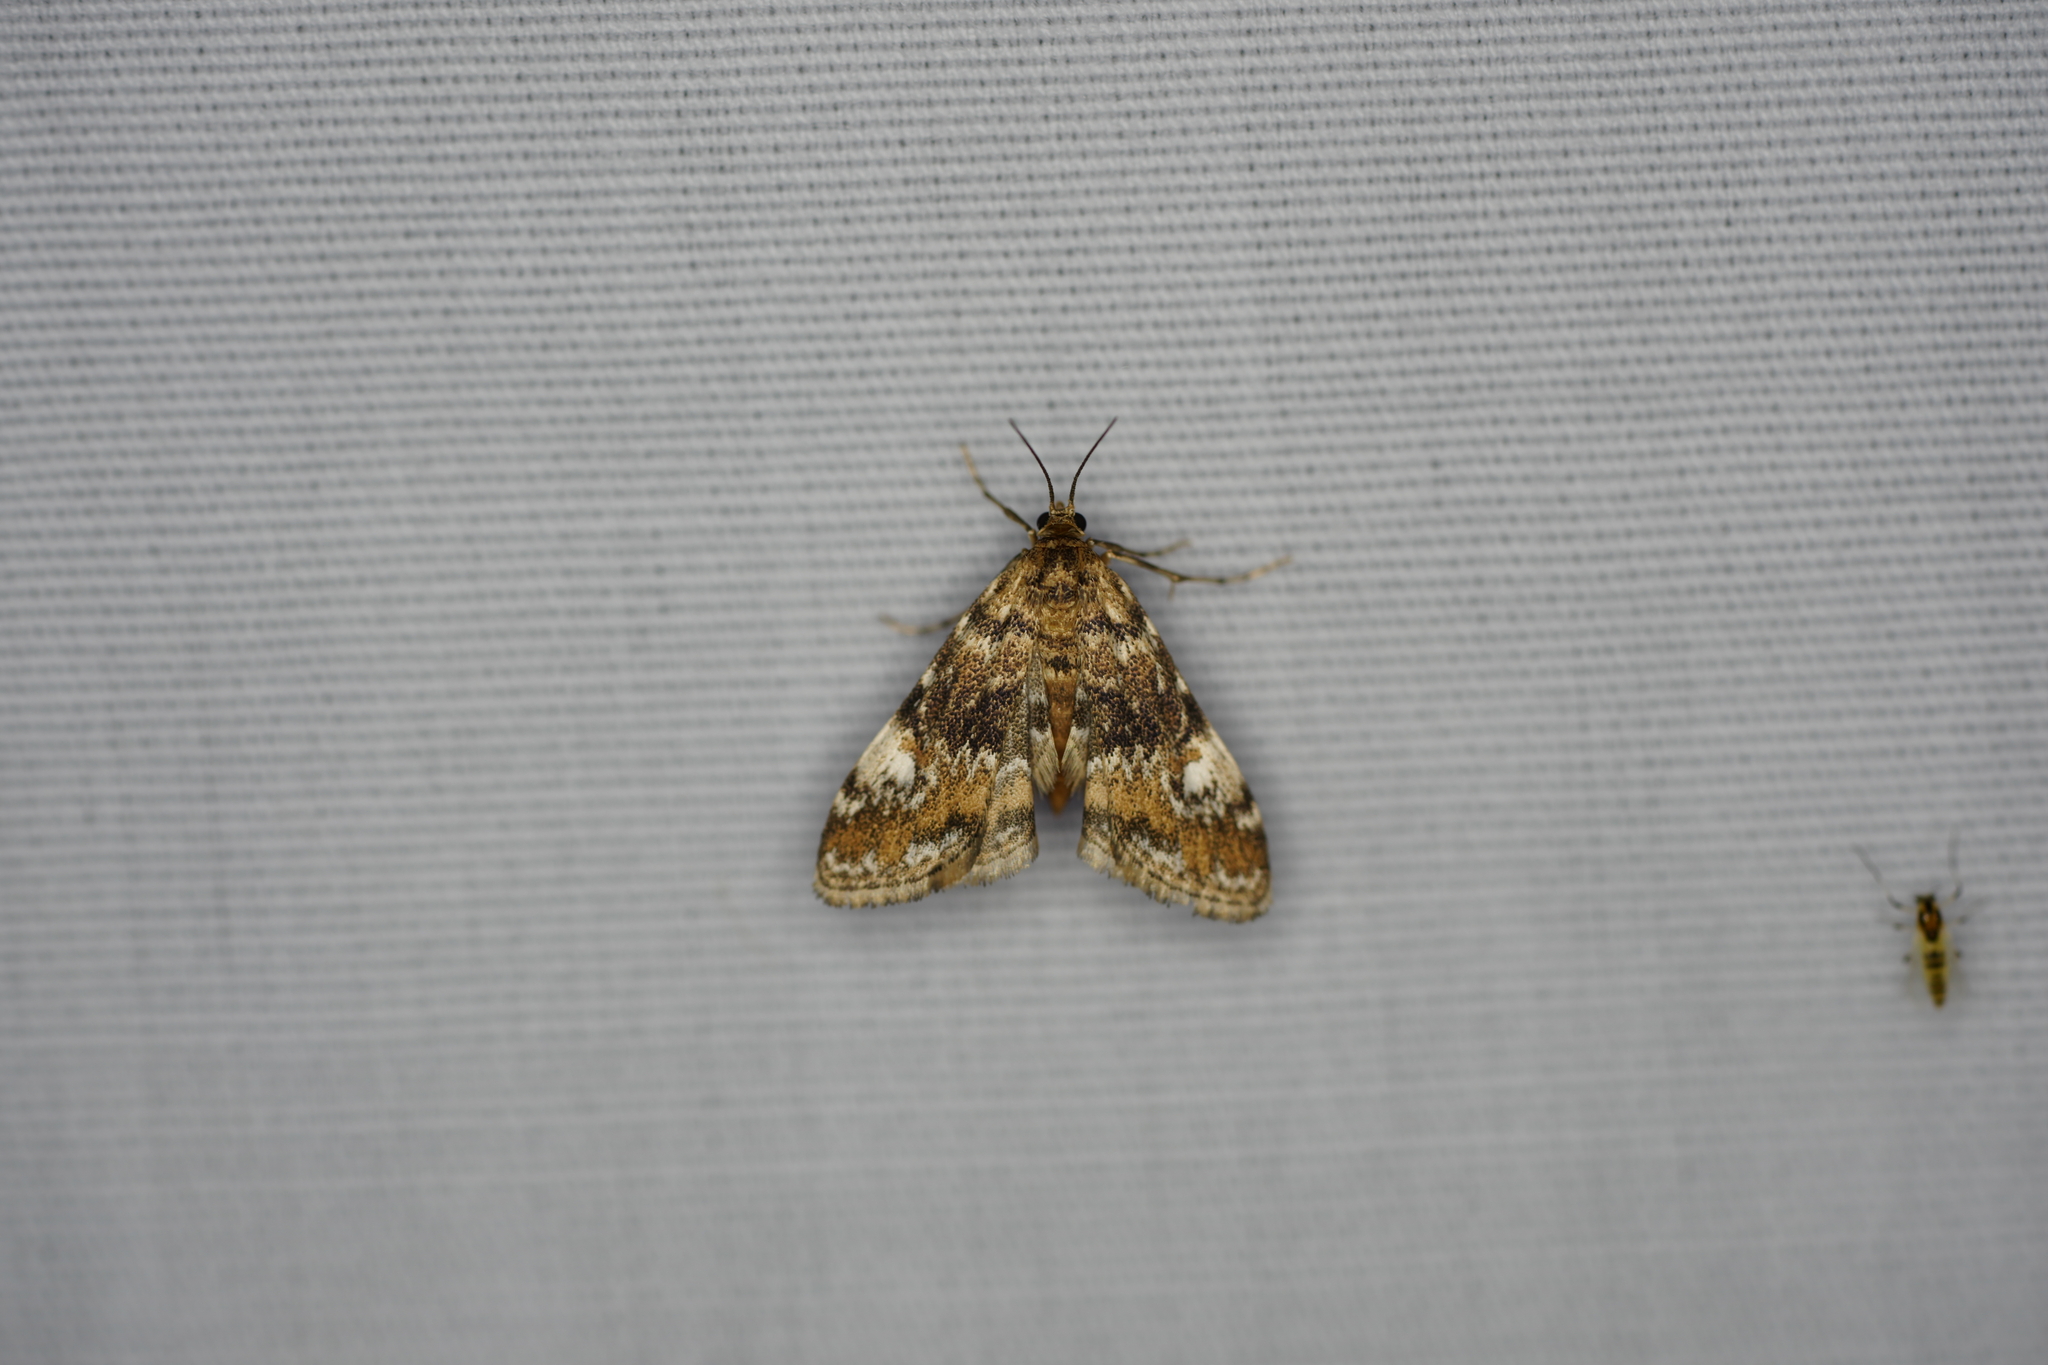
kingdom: Animalia
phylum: Arthropoda
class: Insecta
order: Lepidoptera
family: Crambidae
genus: Elophila
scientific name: Elophila obliteralis
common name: Waterlily leafcutter moth
